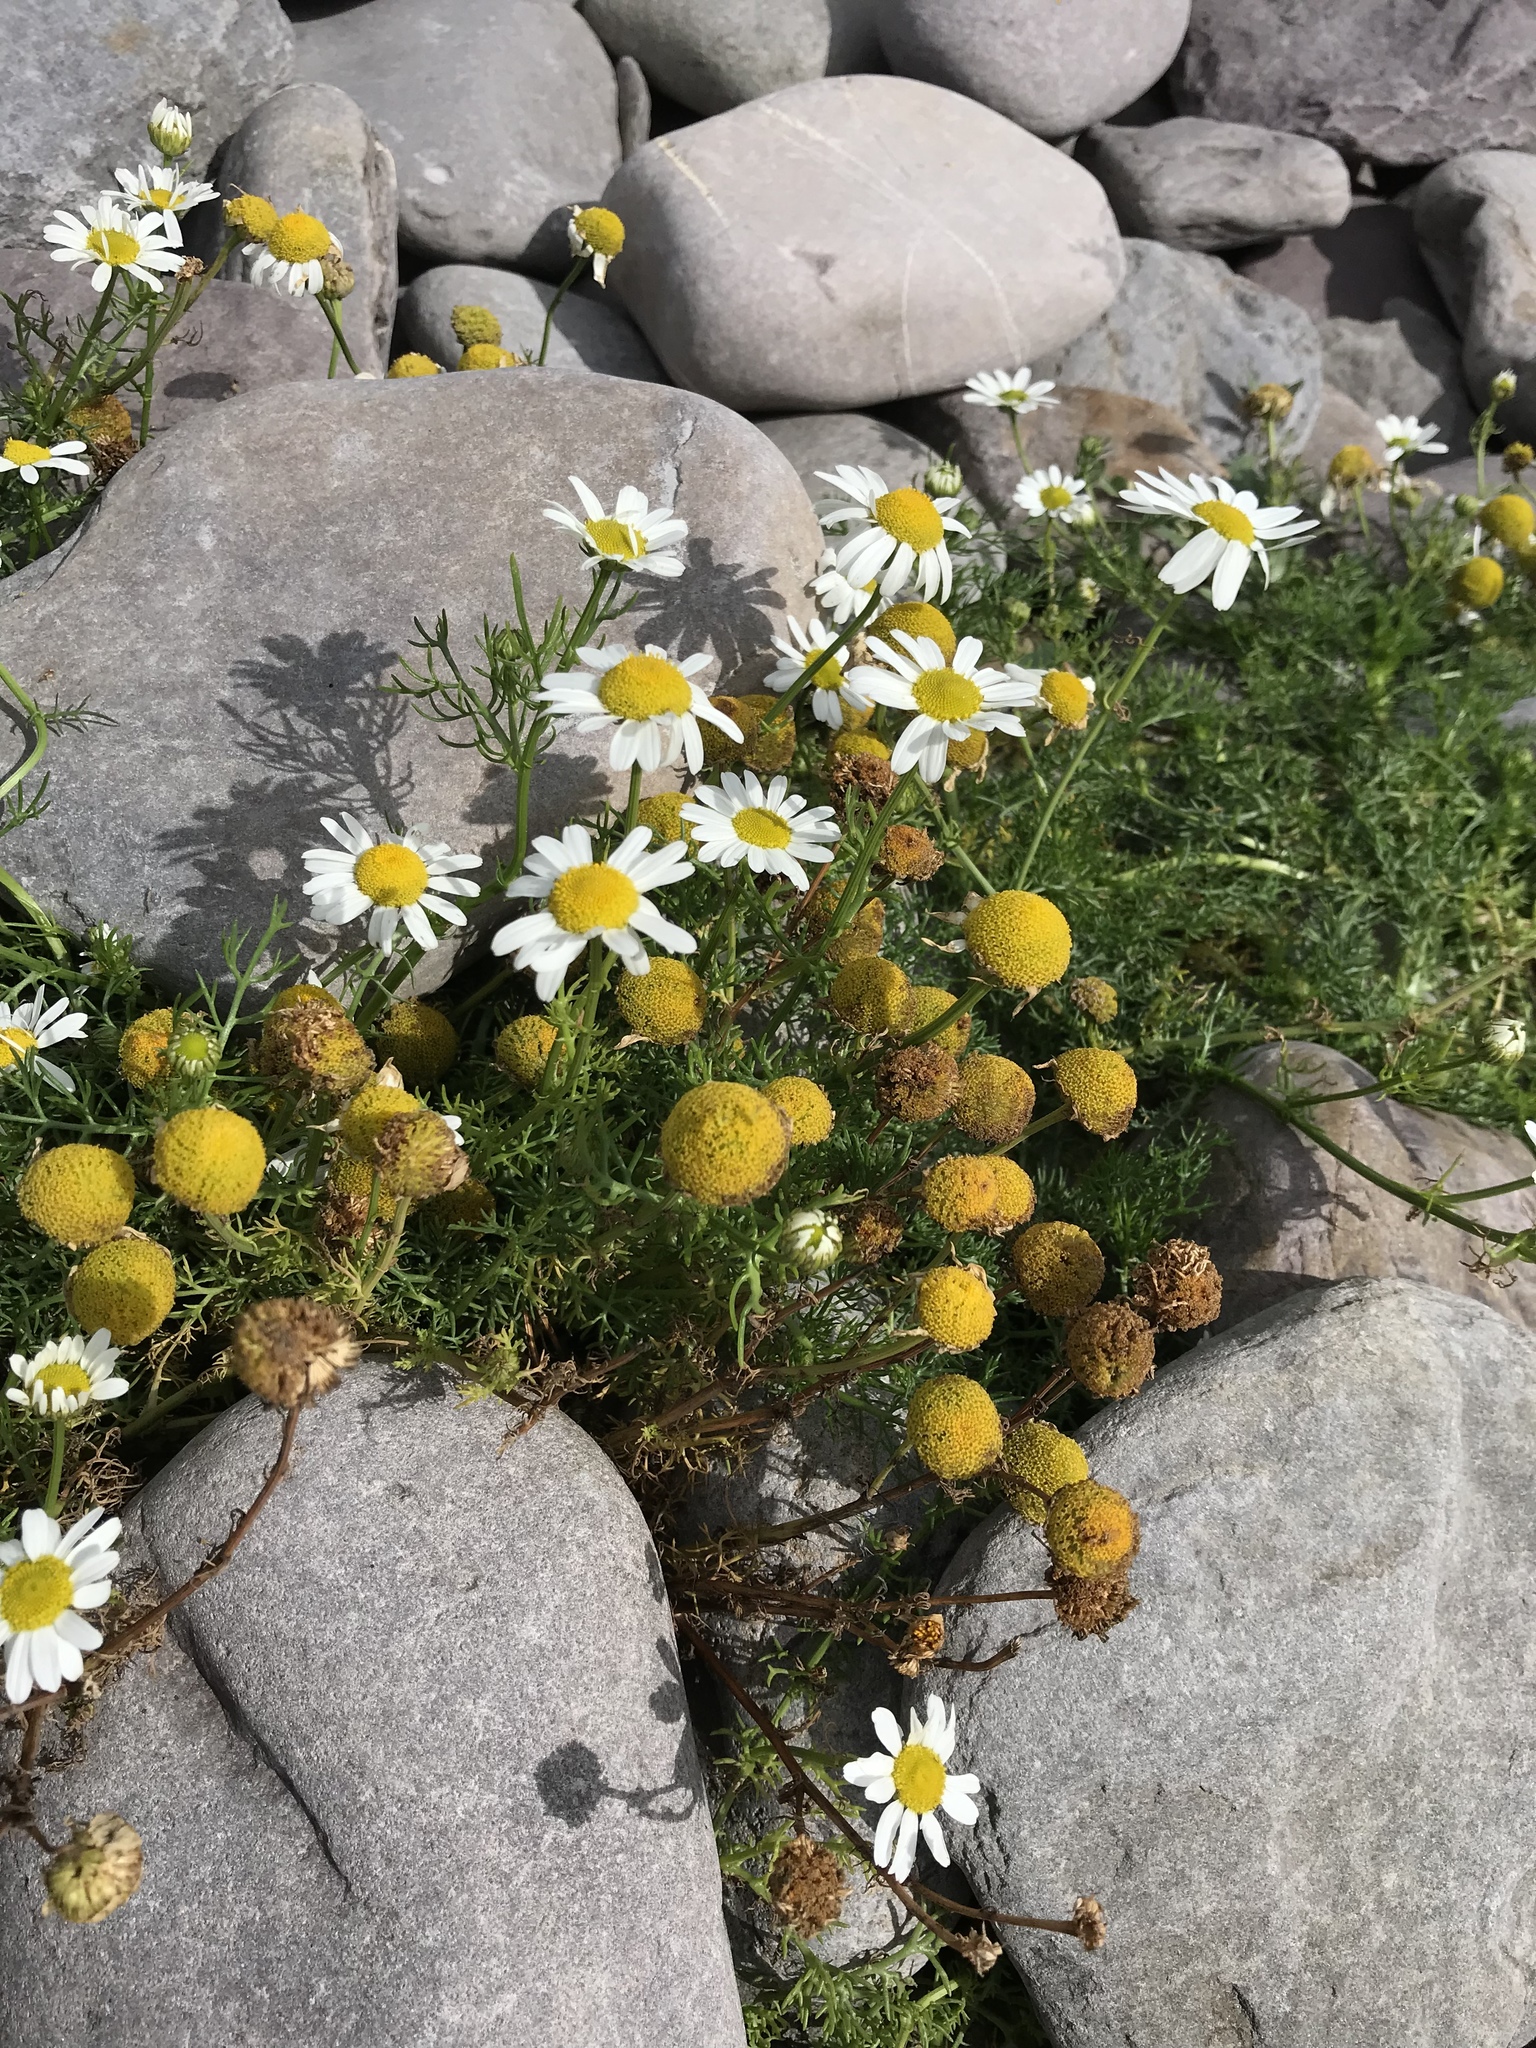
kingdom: Plantae
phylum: Tracheophyta
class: Magnoliopsida
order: Asterales
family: Asteraceae
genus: Tripleurospermum
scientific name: Tripleurospermum maritimum
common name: Sea mayweed
